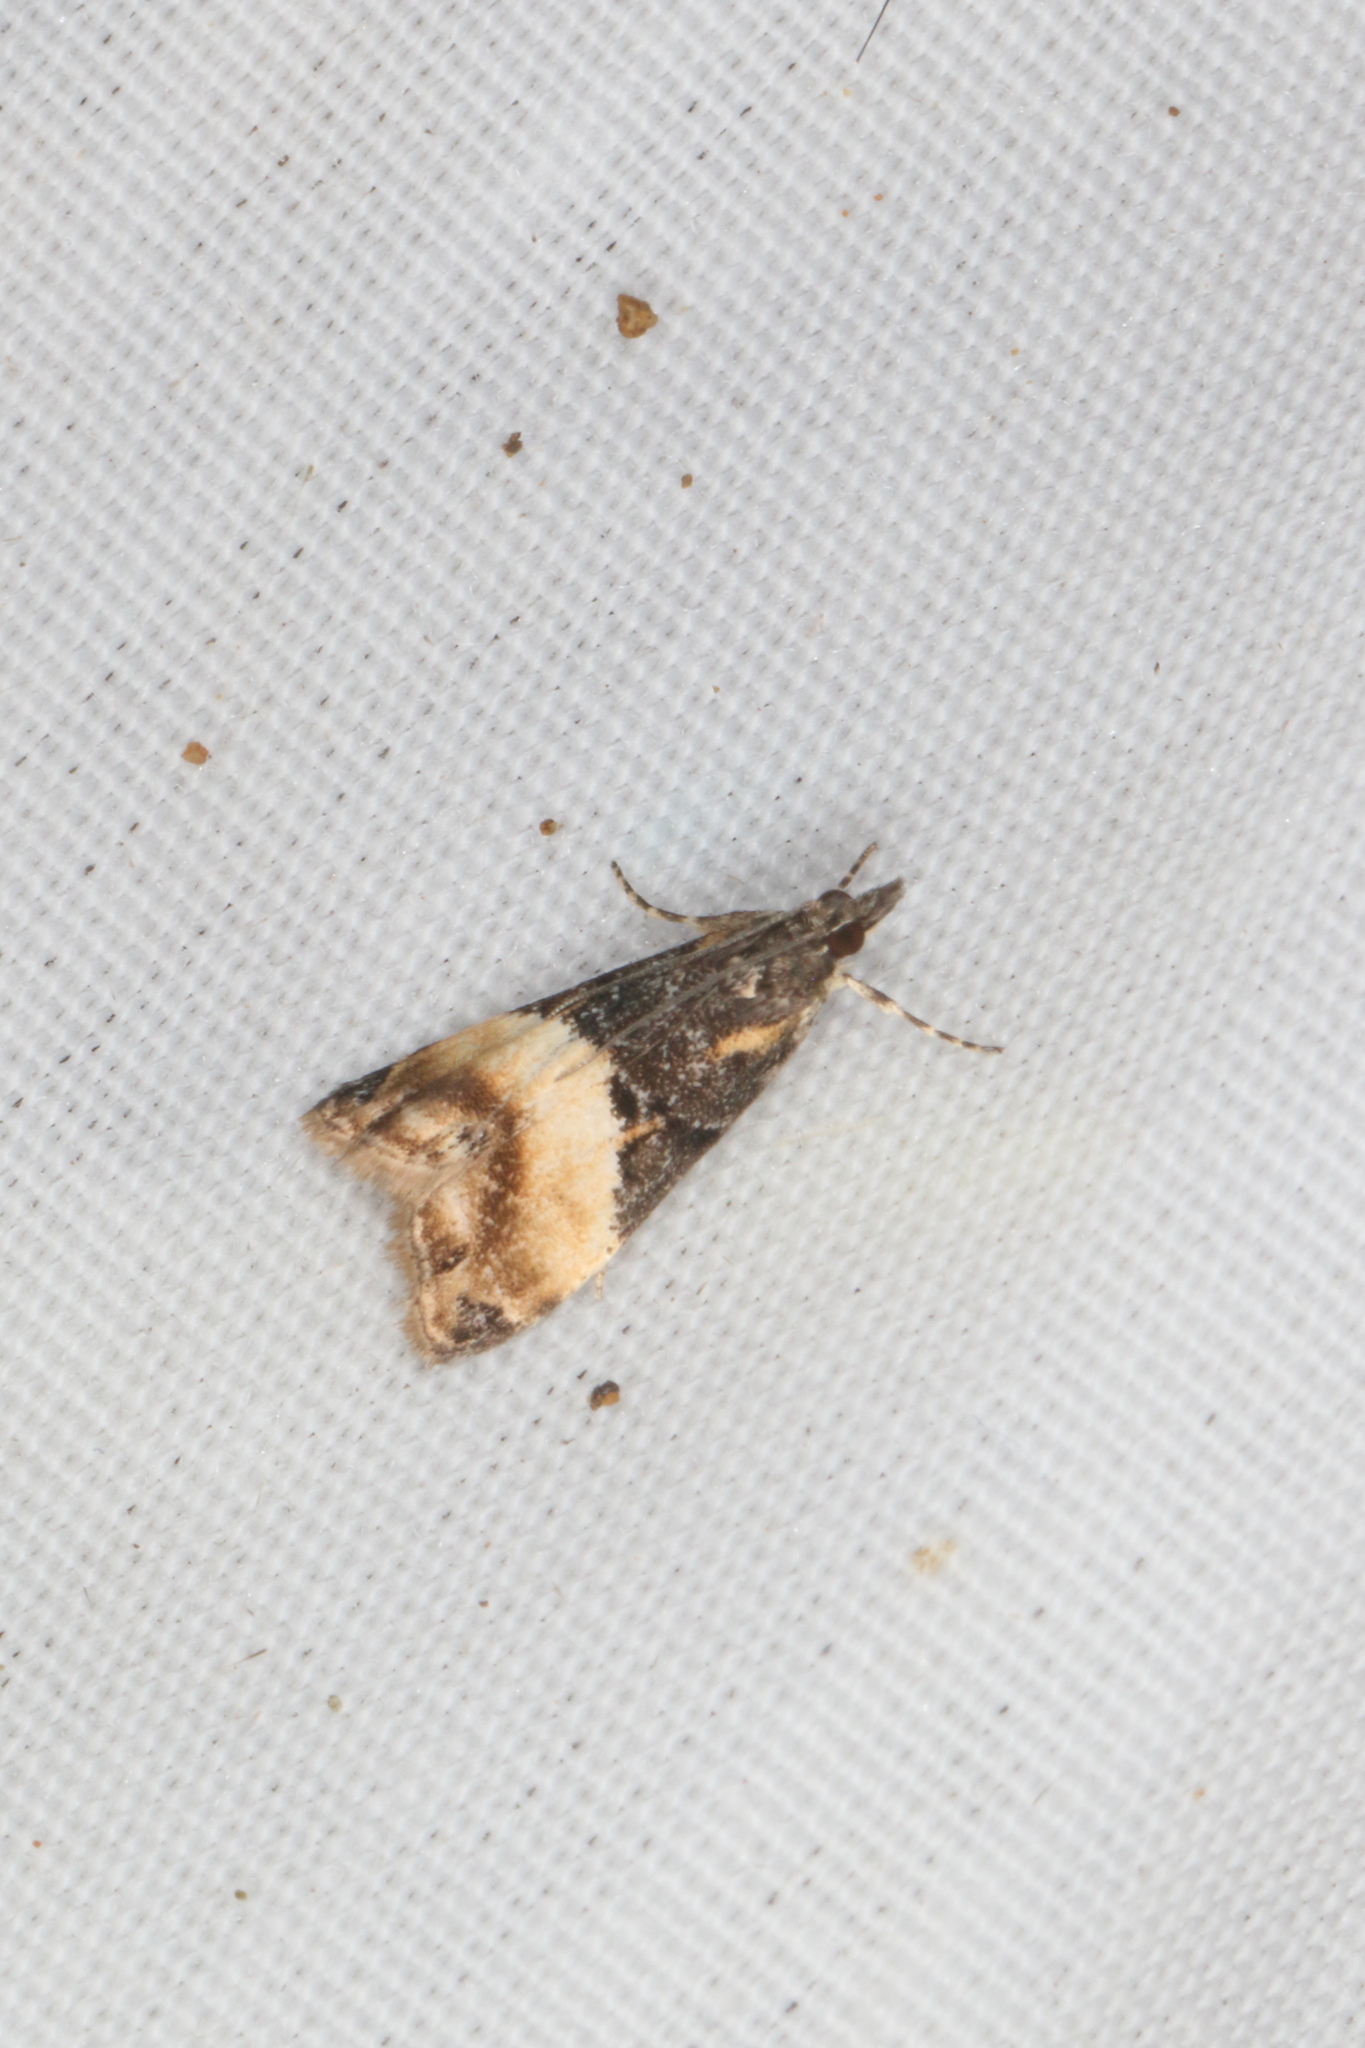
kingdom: Animalia
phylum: Arthropoda
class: Insecta
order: Lepidoptera
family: Crambidae
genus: Eudonia
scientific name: Eudonia chlamydota
